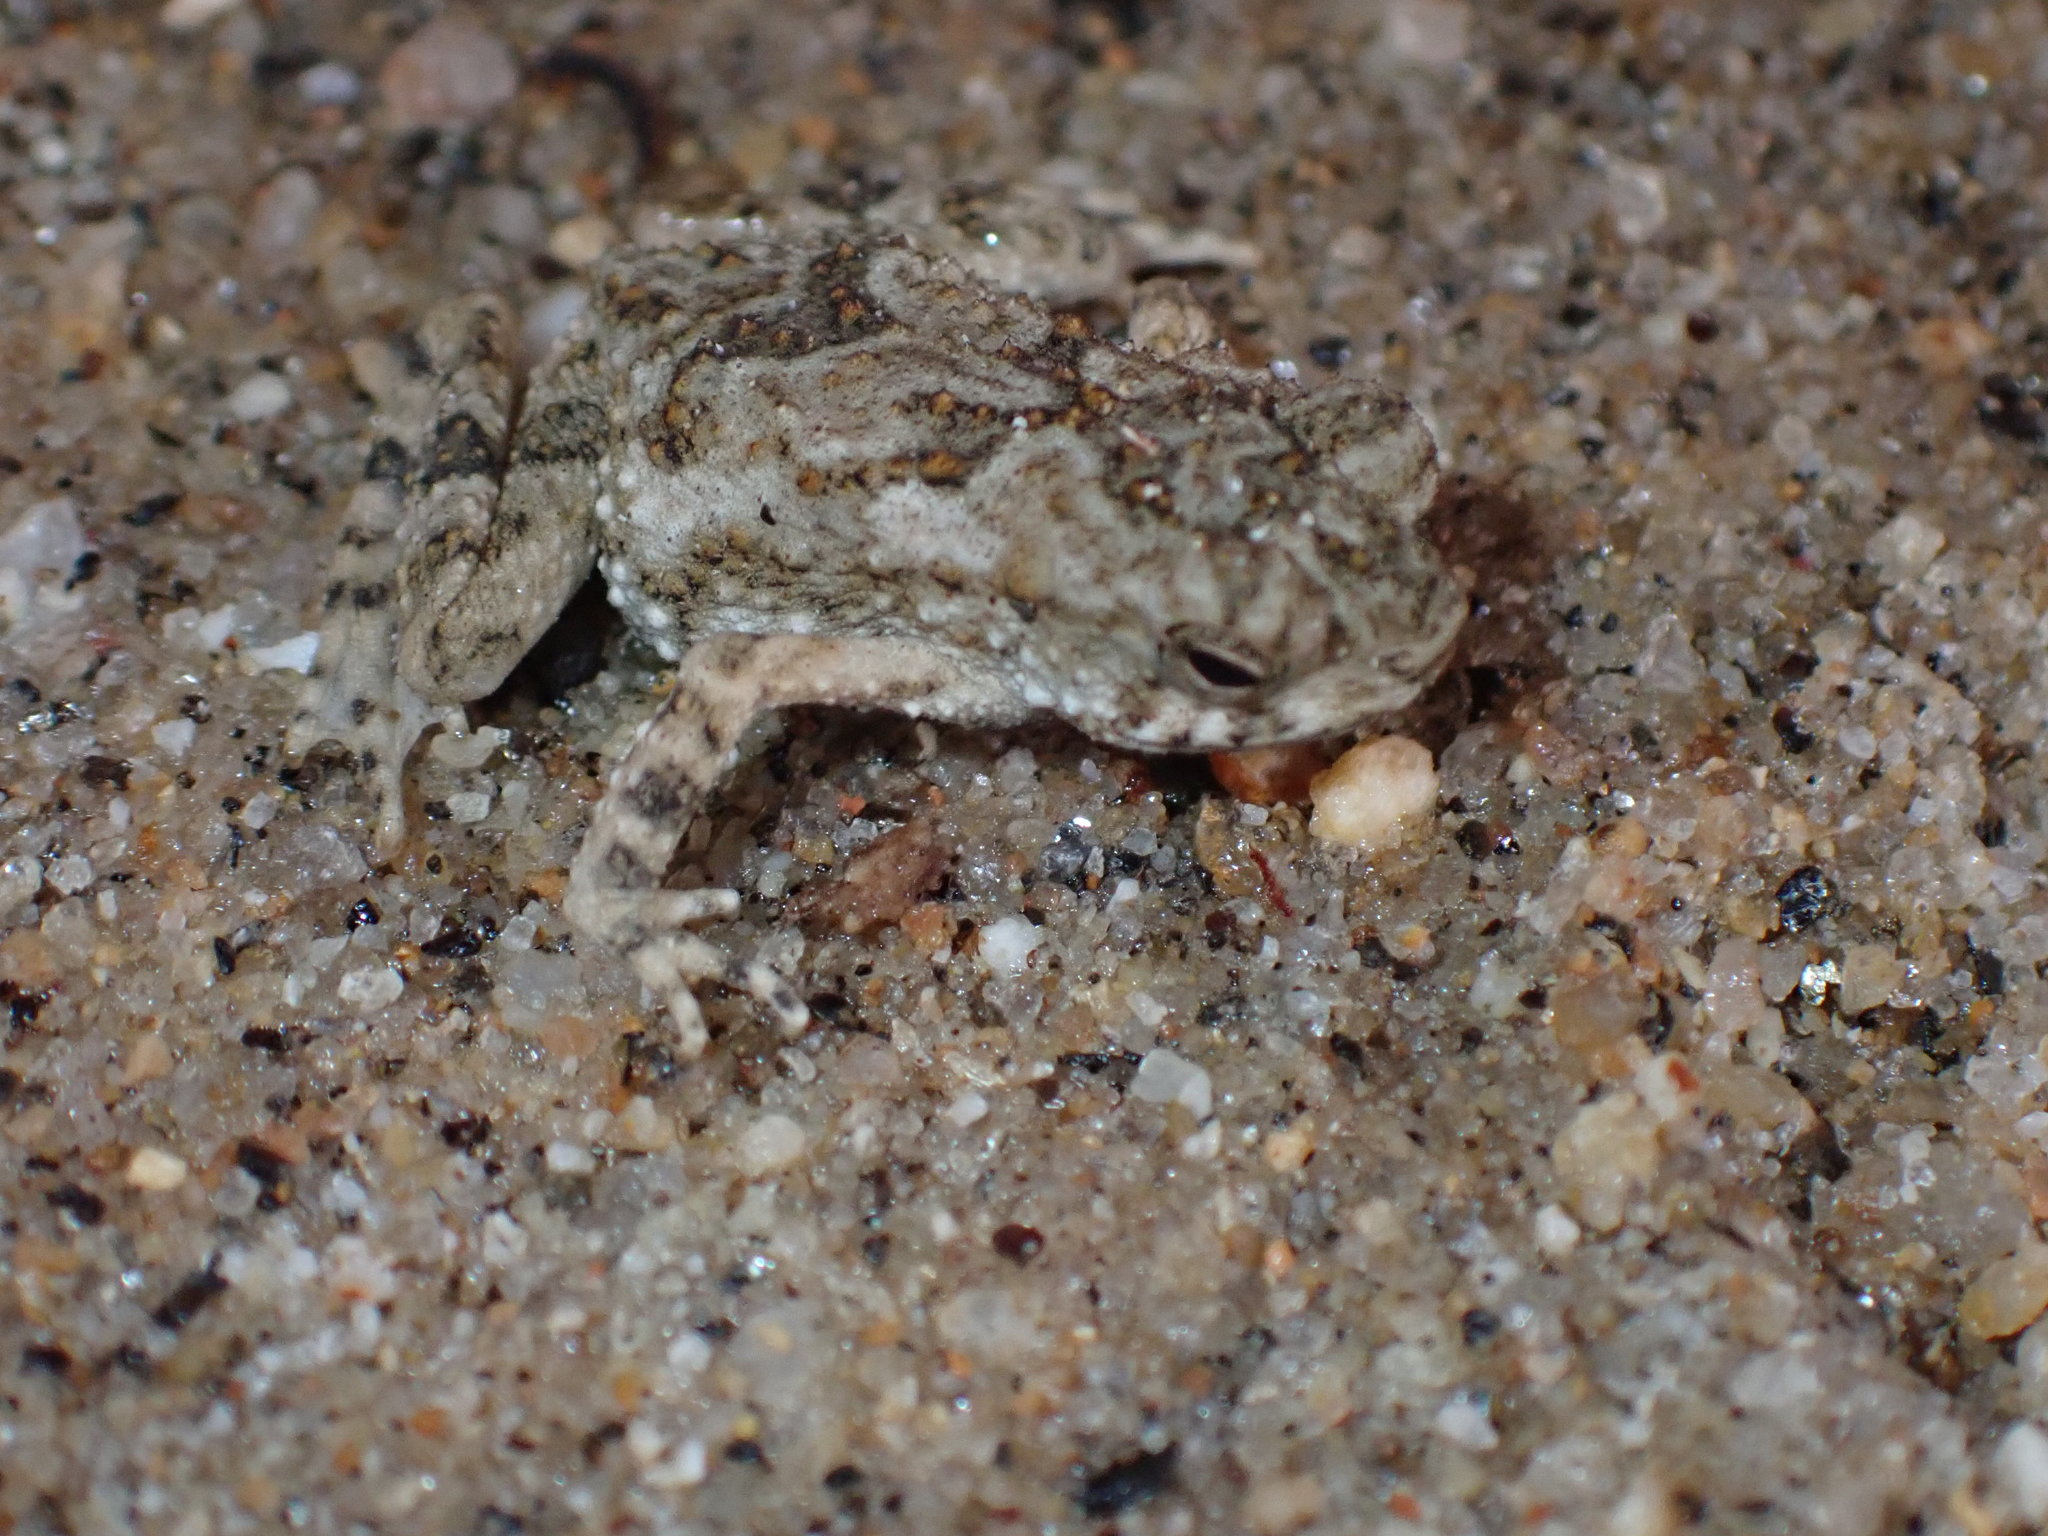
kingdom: Animalia
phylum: Chordata
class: Amphibia
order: Anura
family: Bufonidae
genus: Phrynoidis
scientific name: Phrynoidis asper
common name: Asian giant toad
